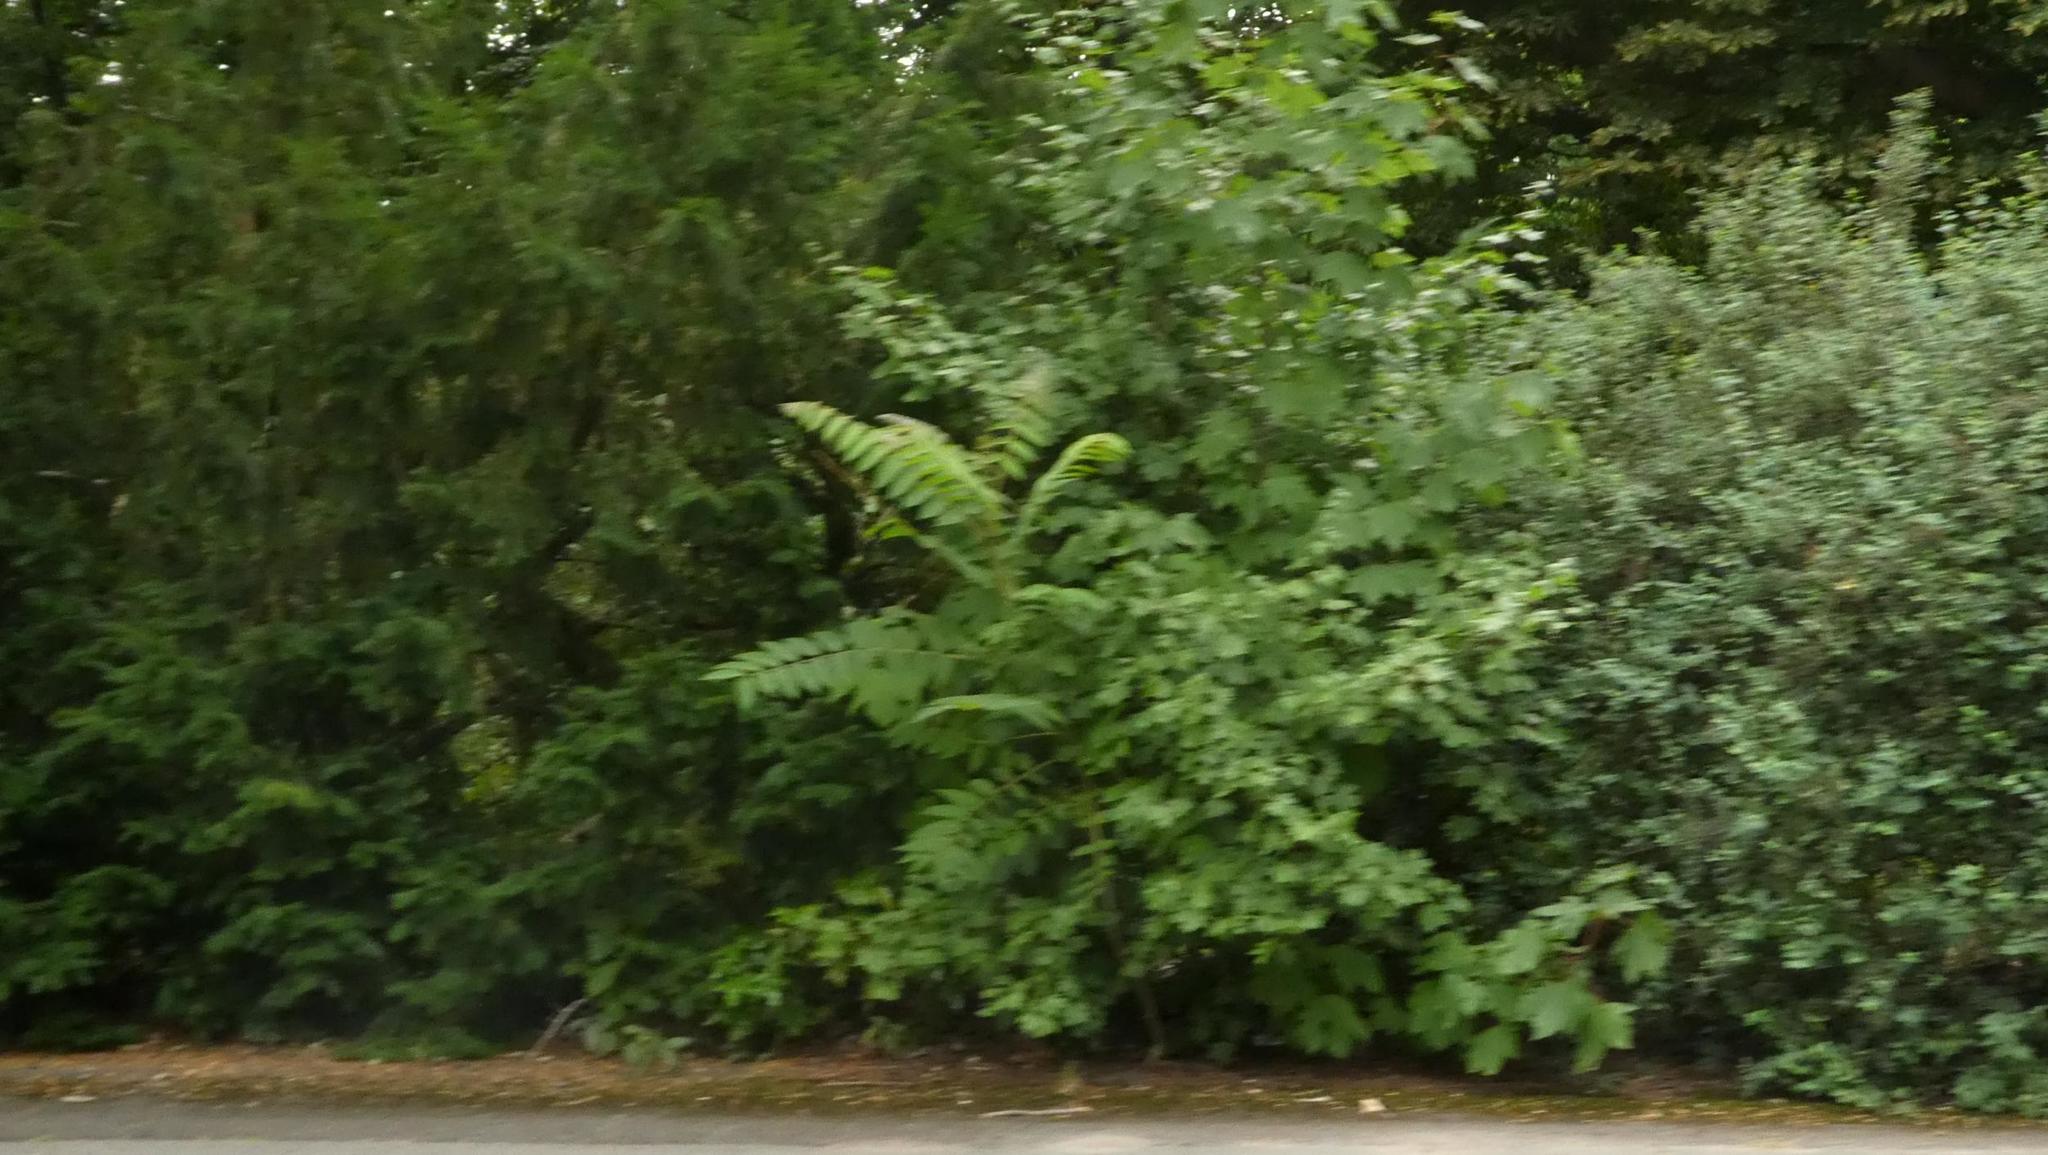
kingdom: Plantae
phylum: Tracheophyta
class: Magnoliopsida
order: Sapindales
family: Simaroubaceae
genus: Ailanthus
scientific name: Ailanthus altissima
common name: Tree-of-heaven
